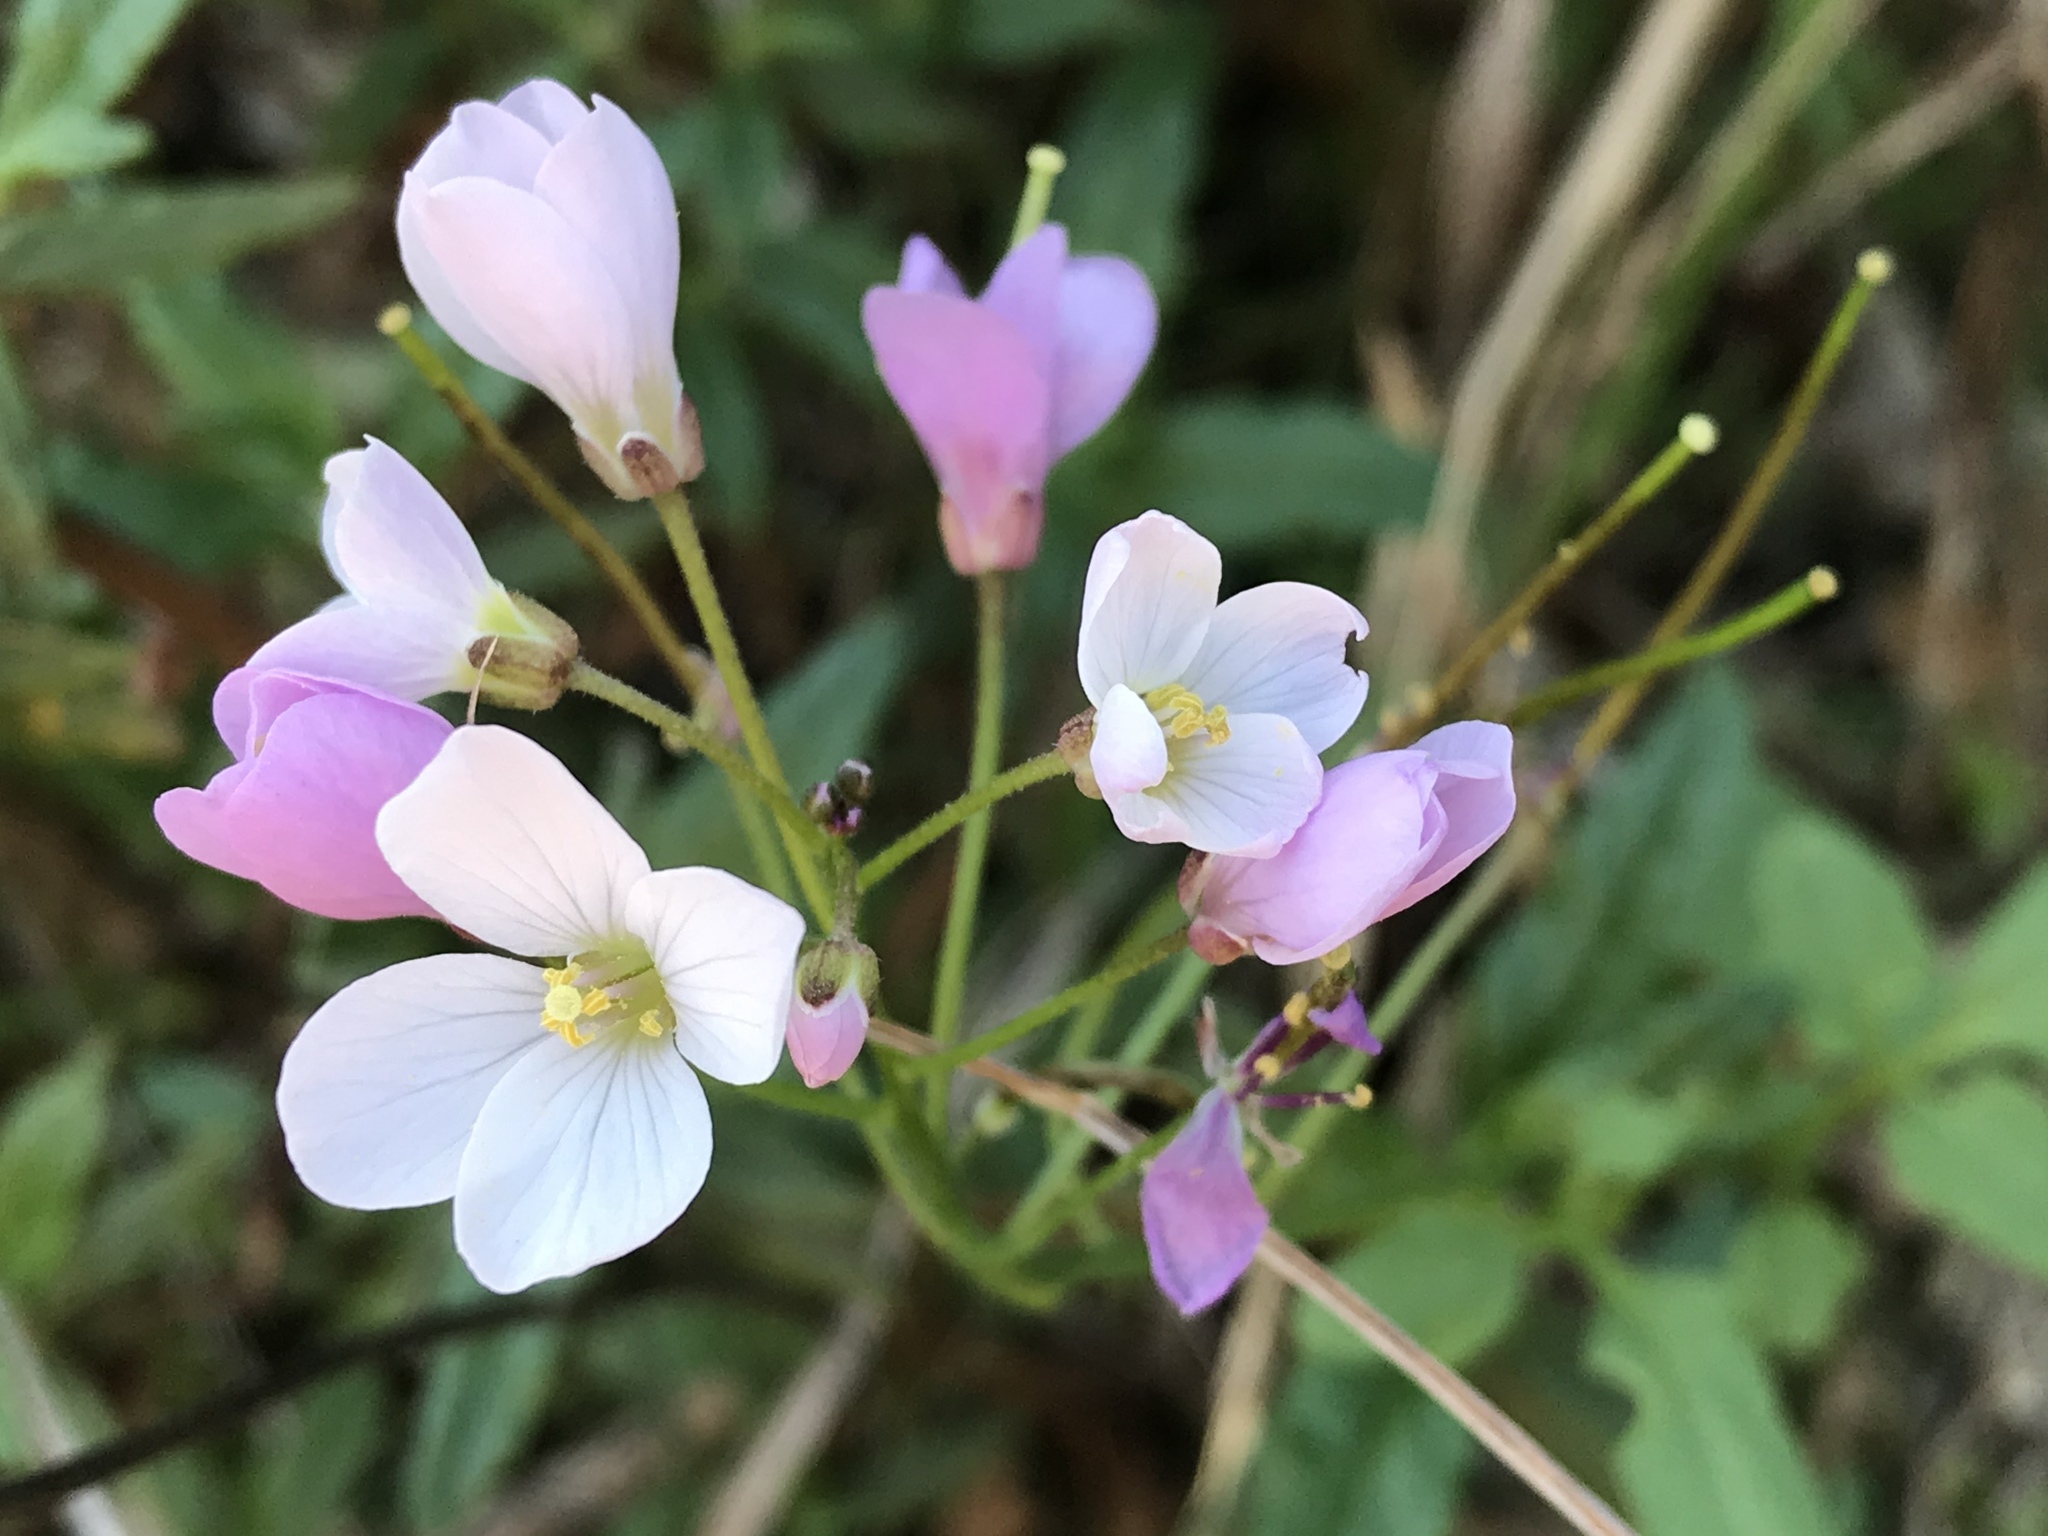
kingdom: Plantae
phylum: Tracheophyta
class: Magnoliopsida
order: Brassicales
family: Brassicaceae
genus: Cardamine
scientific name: Cardamine californica
